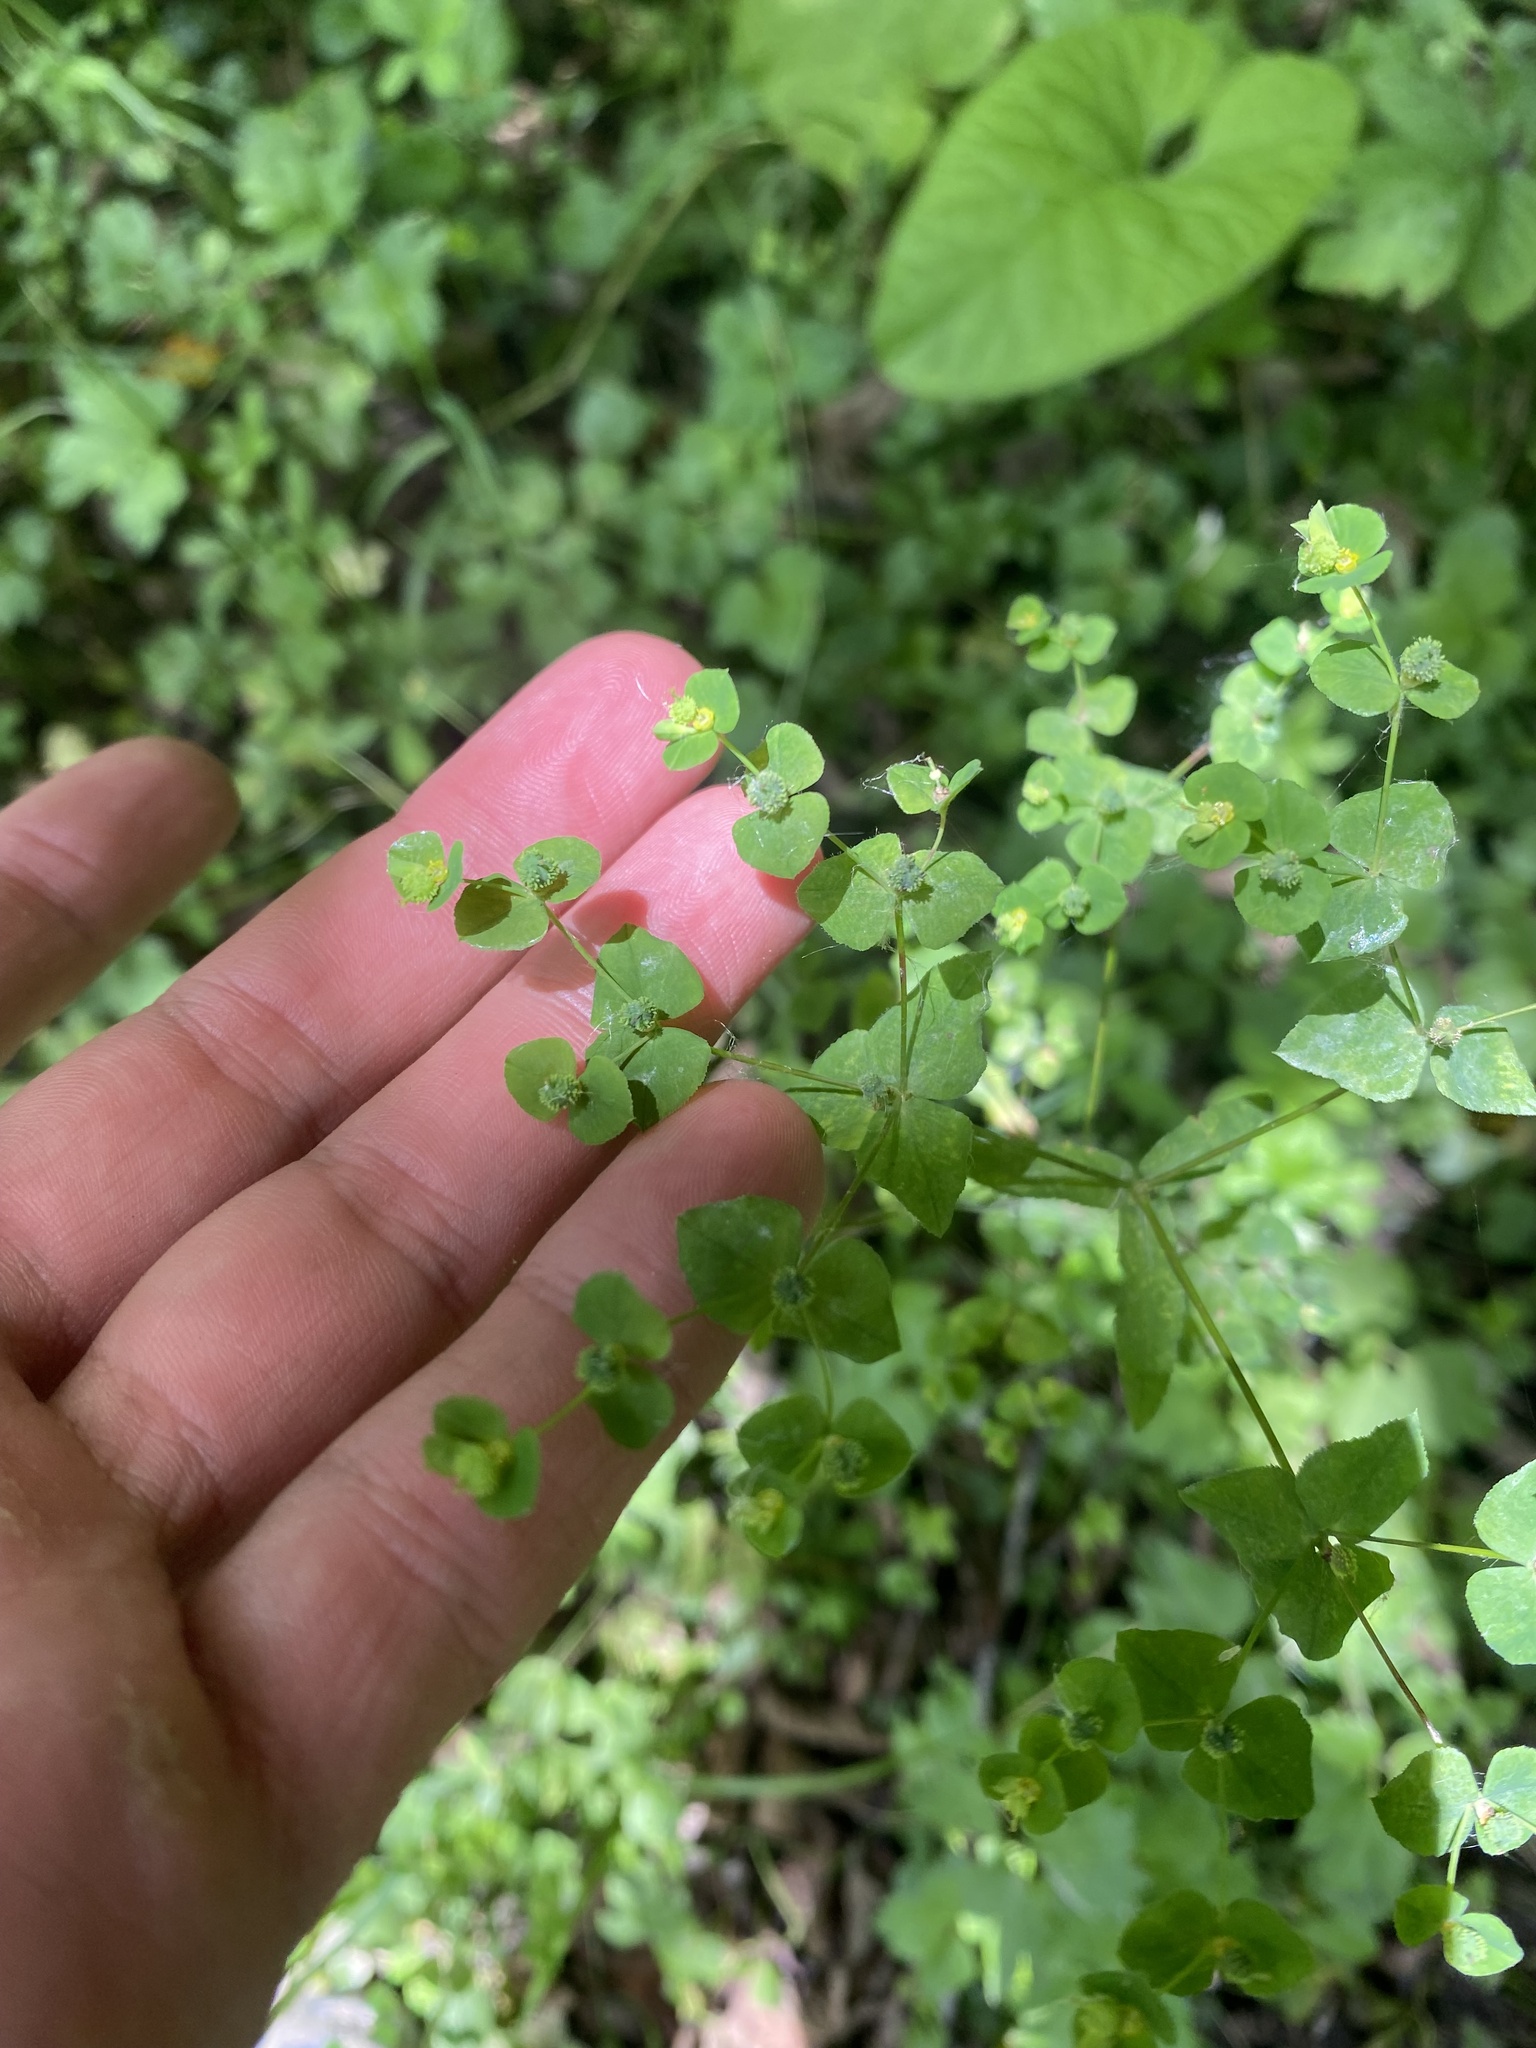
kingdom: Plantae
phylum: Tracheophyta
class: Magnoliopsida
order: Malpighiales
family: Euphorbiaceae
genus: Euphorbia
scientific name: Euphorbia stricta
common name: Upright spurge
